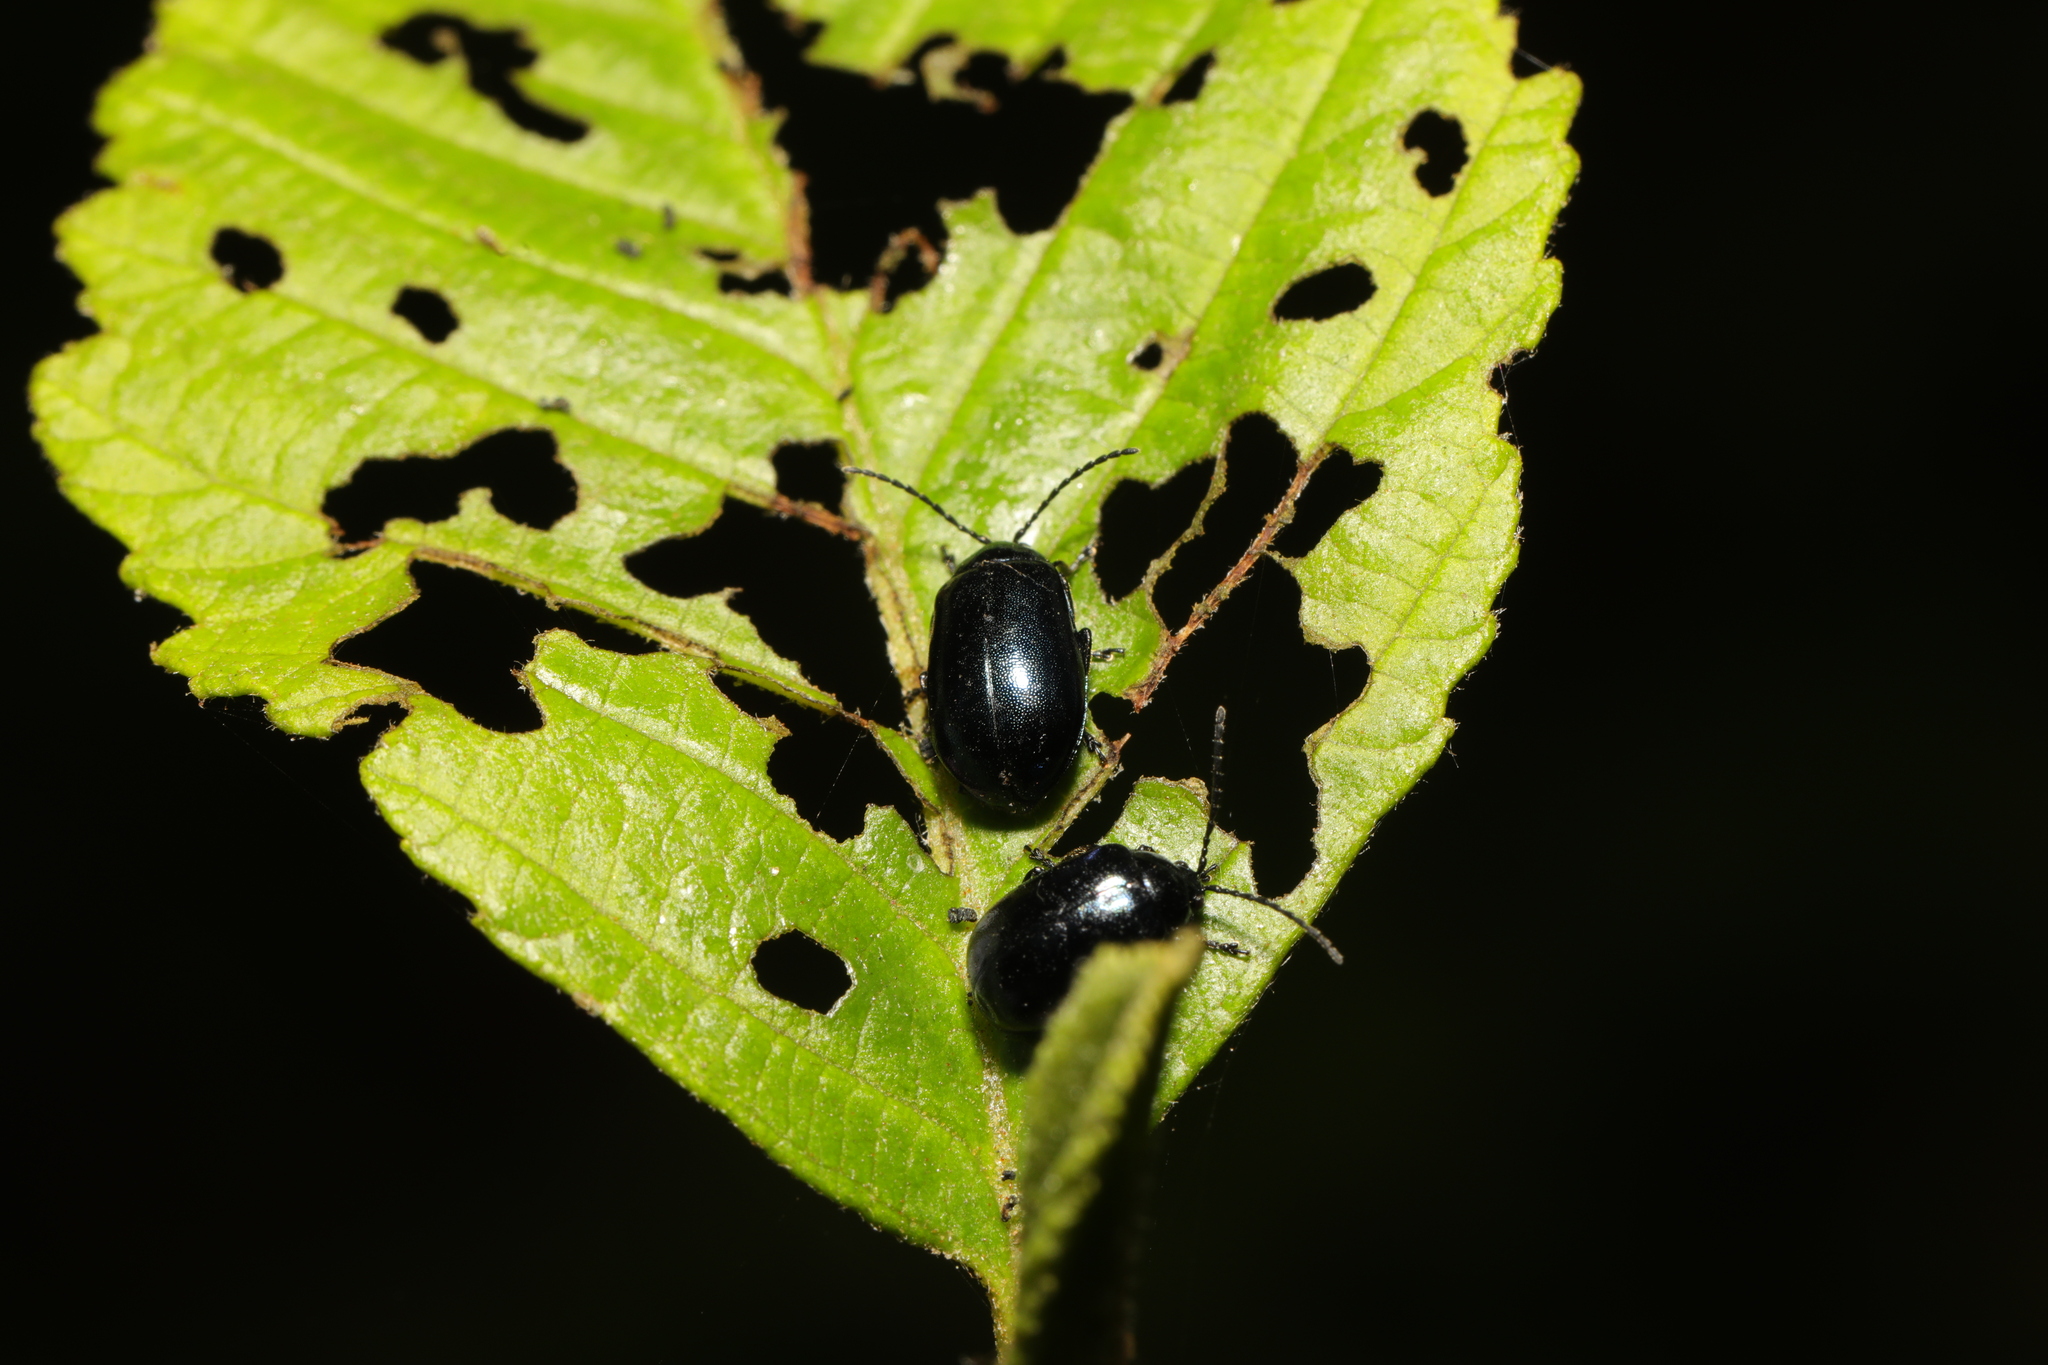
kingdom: Animalia
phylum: Arthropoda
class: Insecta
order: Coleoptera
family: Chrysomelidae
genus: Agelastica
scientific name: Agelastica alni
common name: Alder leaf beetle
